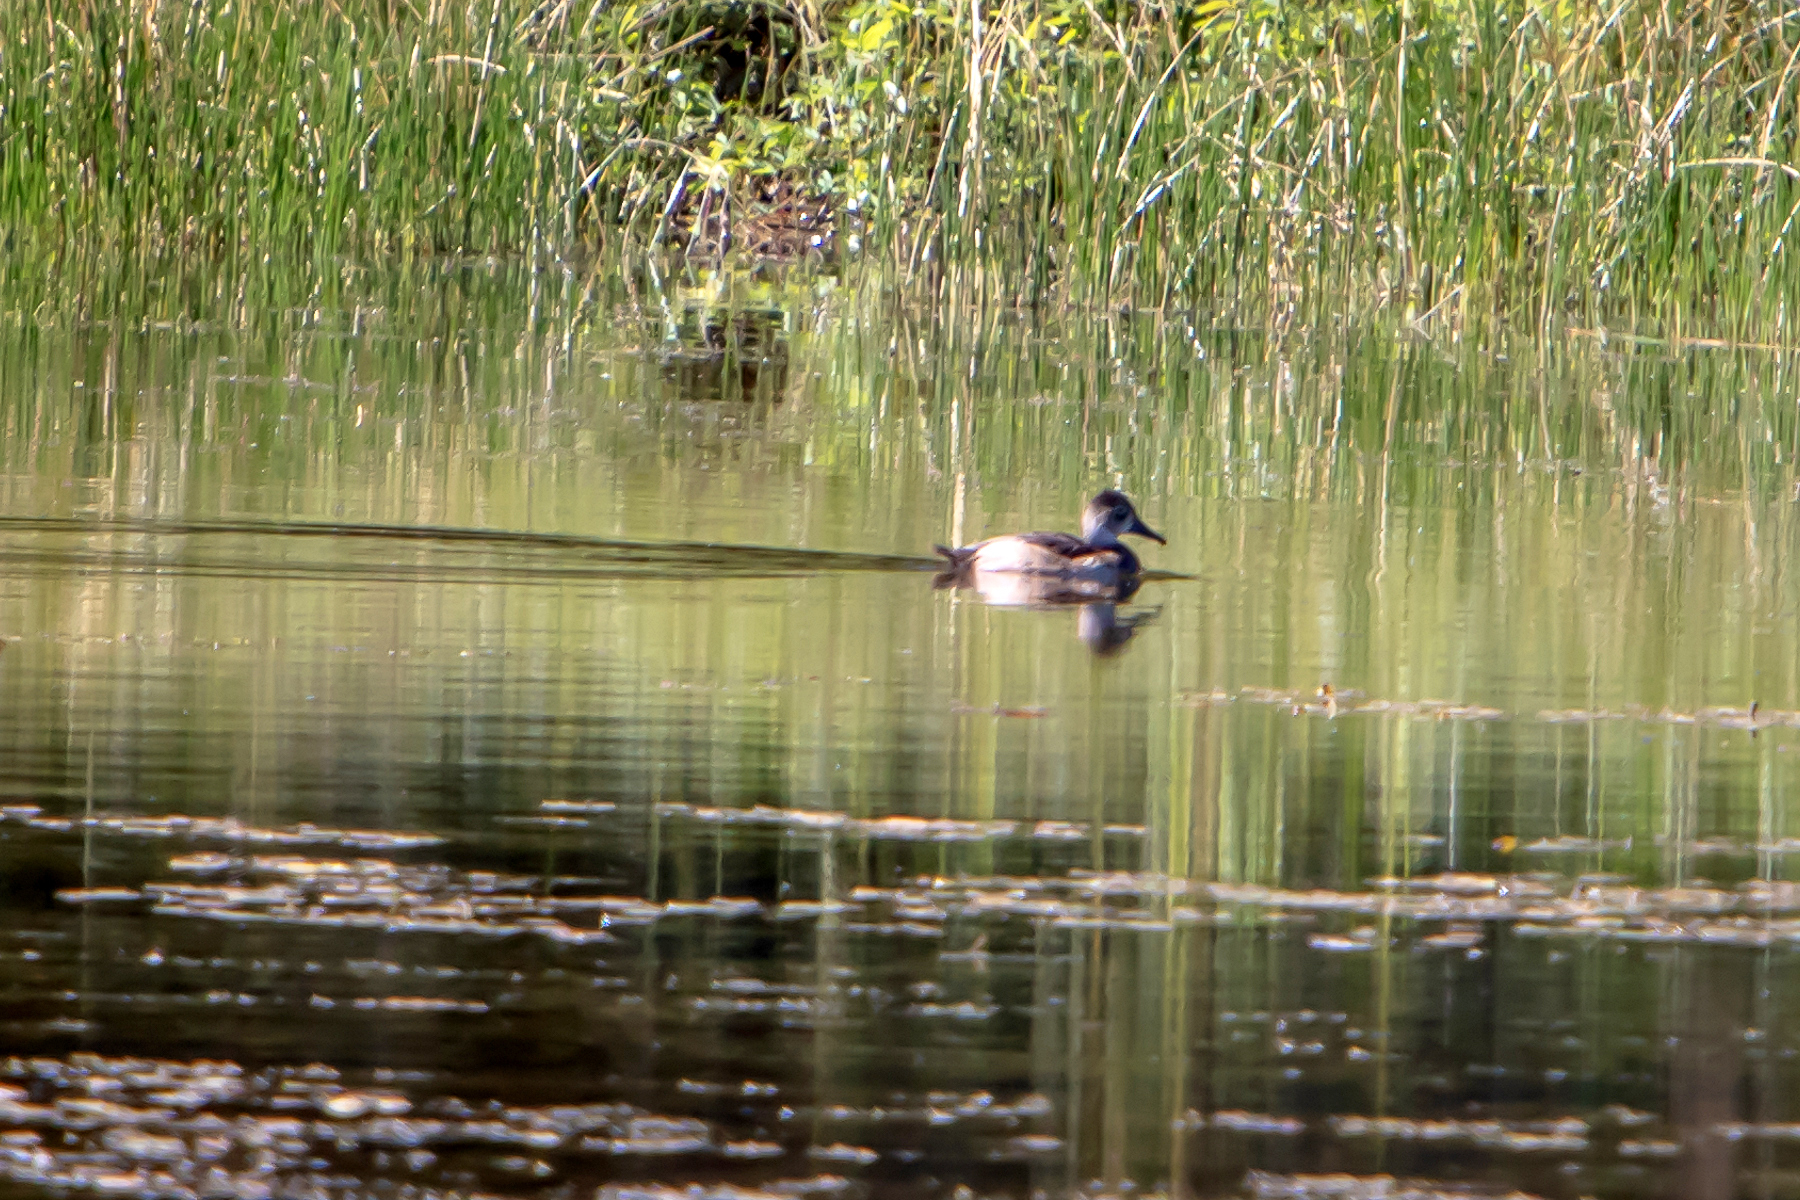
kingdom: Animalia
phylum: Chordata
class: Aves
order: Anseriformes
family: Anatidae
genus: Aythya
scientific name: Aythya americana
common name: Redhead
